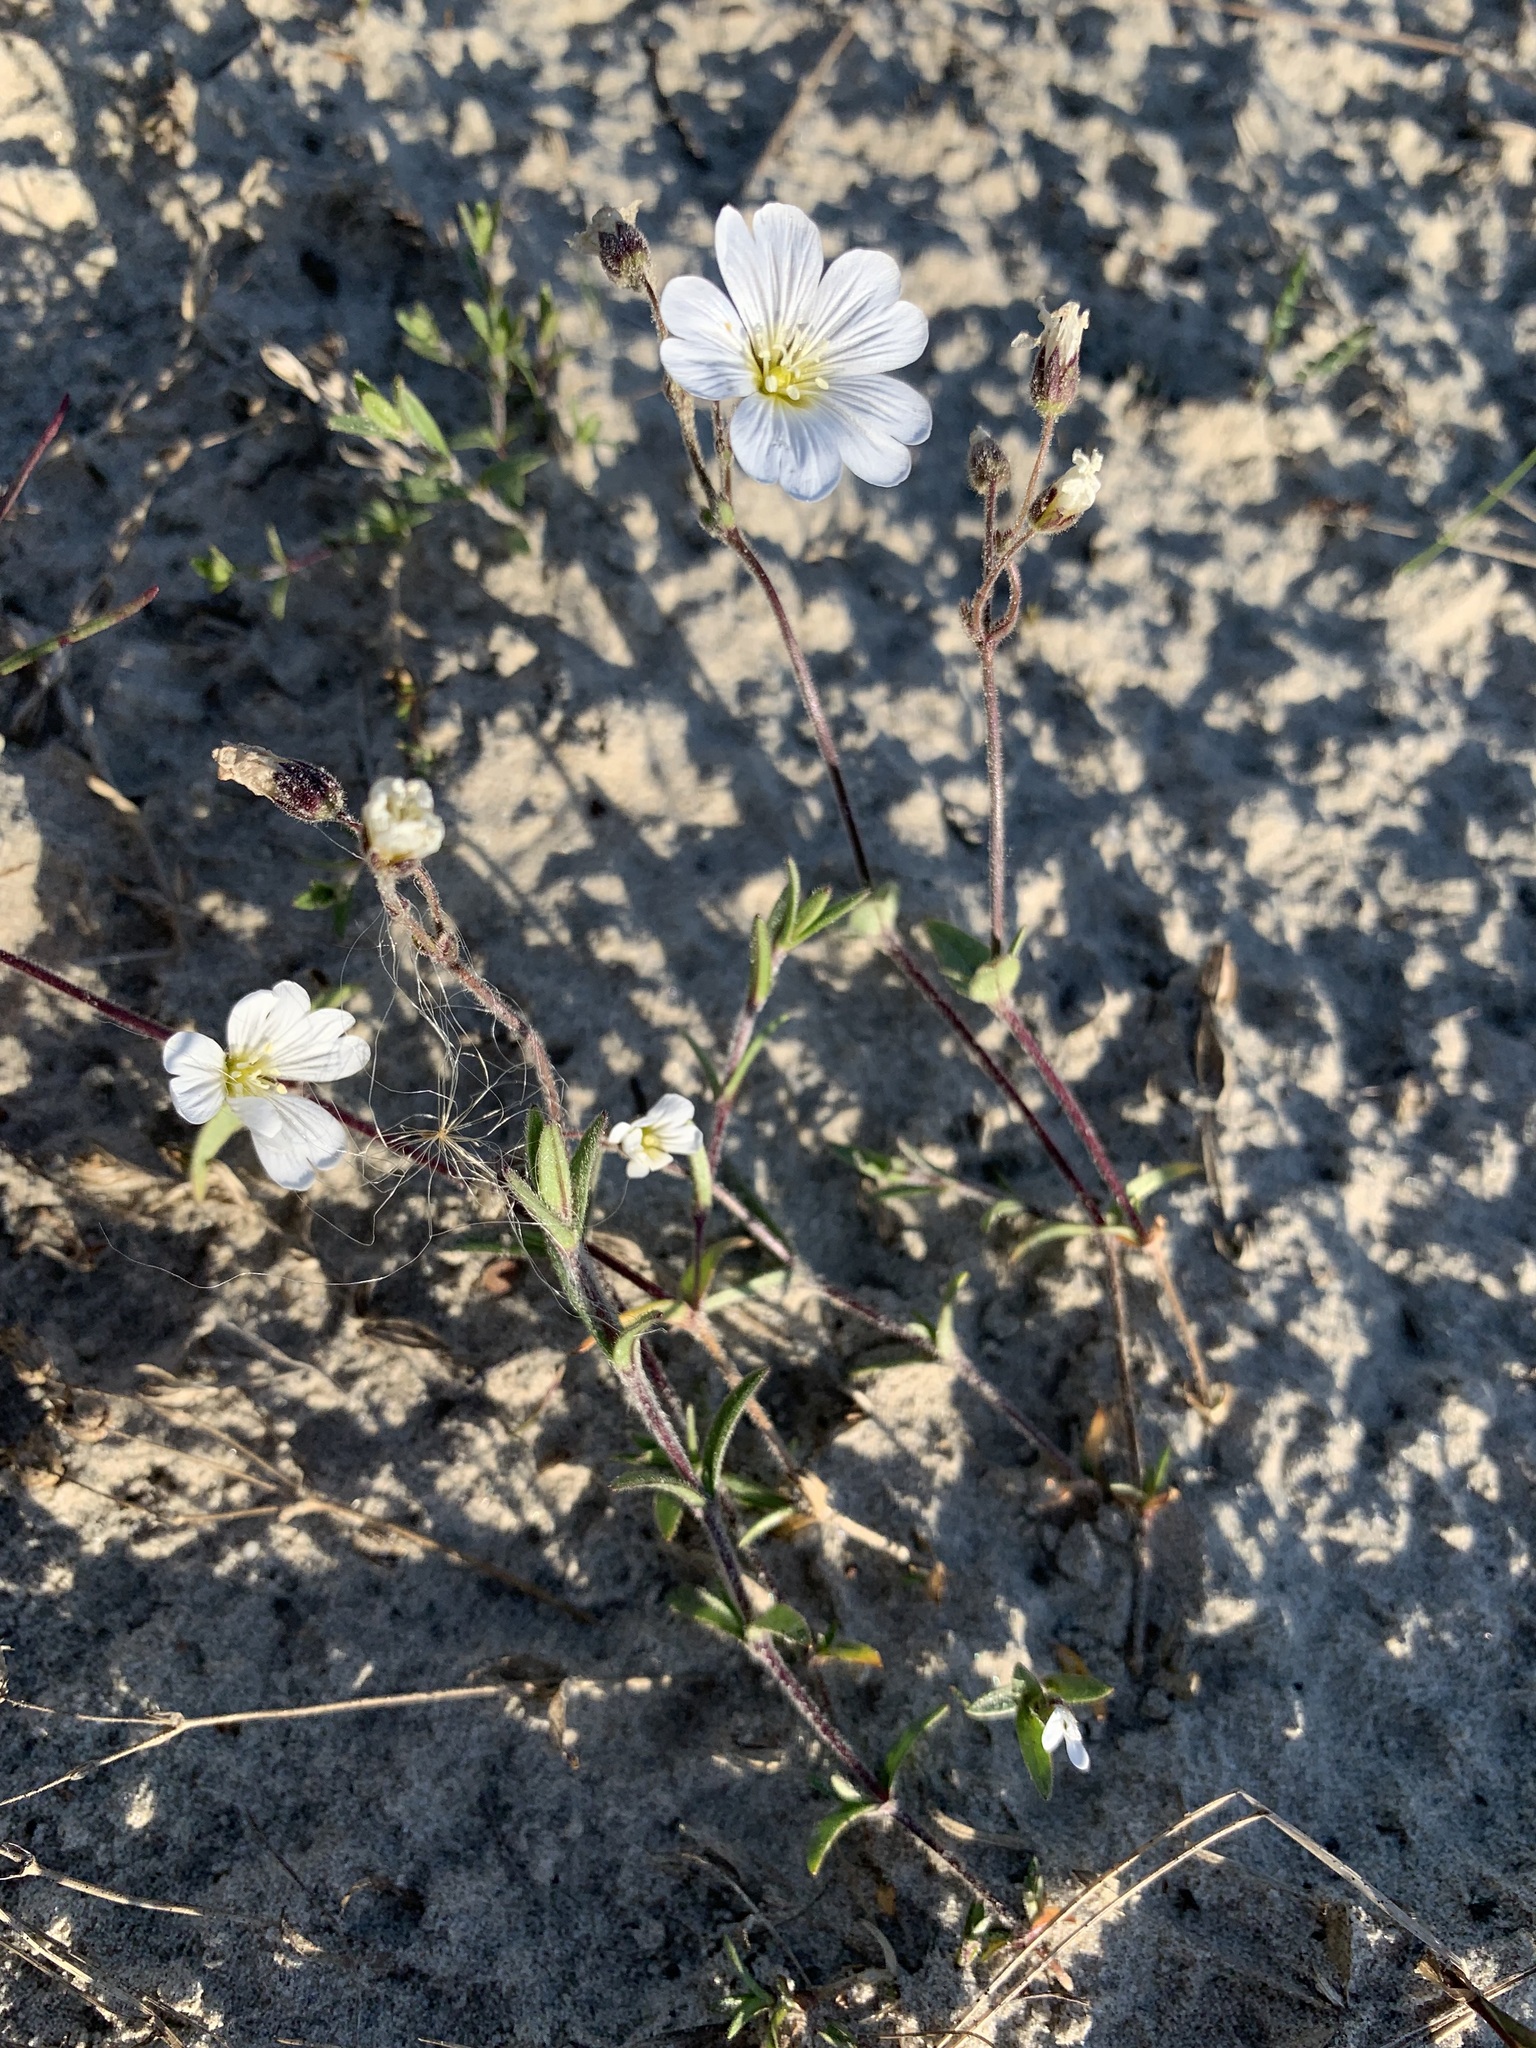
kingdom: Plantae
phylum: Tracheophyta
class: Magnoliopsida
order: Caryophyllales
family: Caryophyllaceae
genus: Cerastium
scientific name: Cerastium arvense
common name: Field mouse-ear
